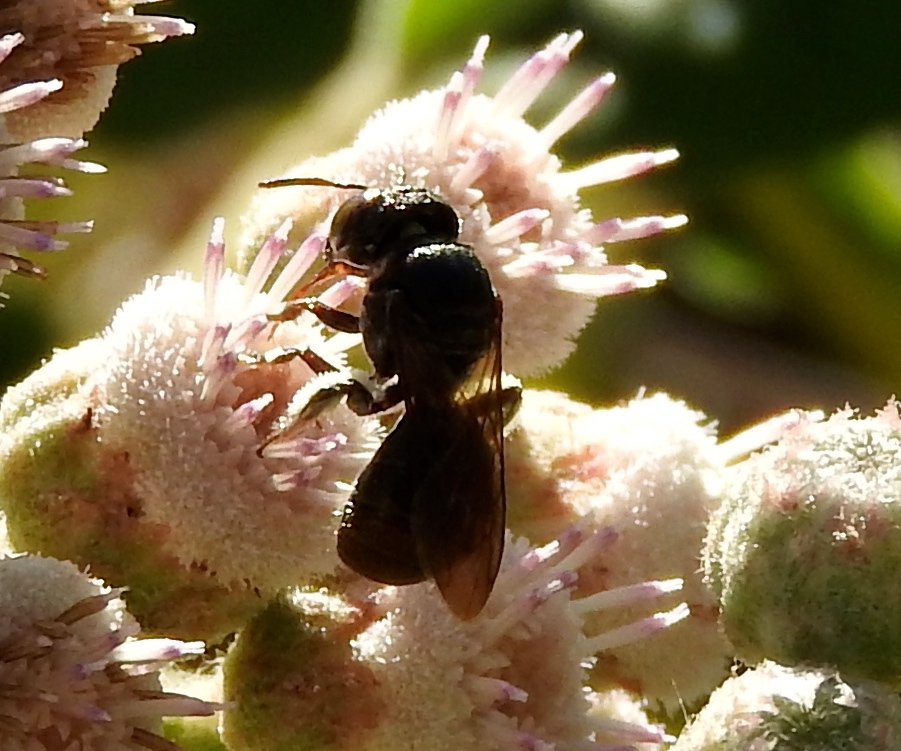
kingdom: Animalia
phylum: Arthropoda
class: Insecta
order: Hymenoptera
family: Apidae
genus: Ceratina
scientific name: Ceratina
